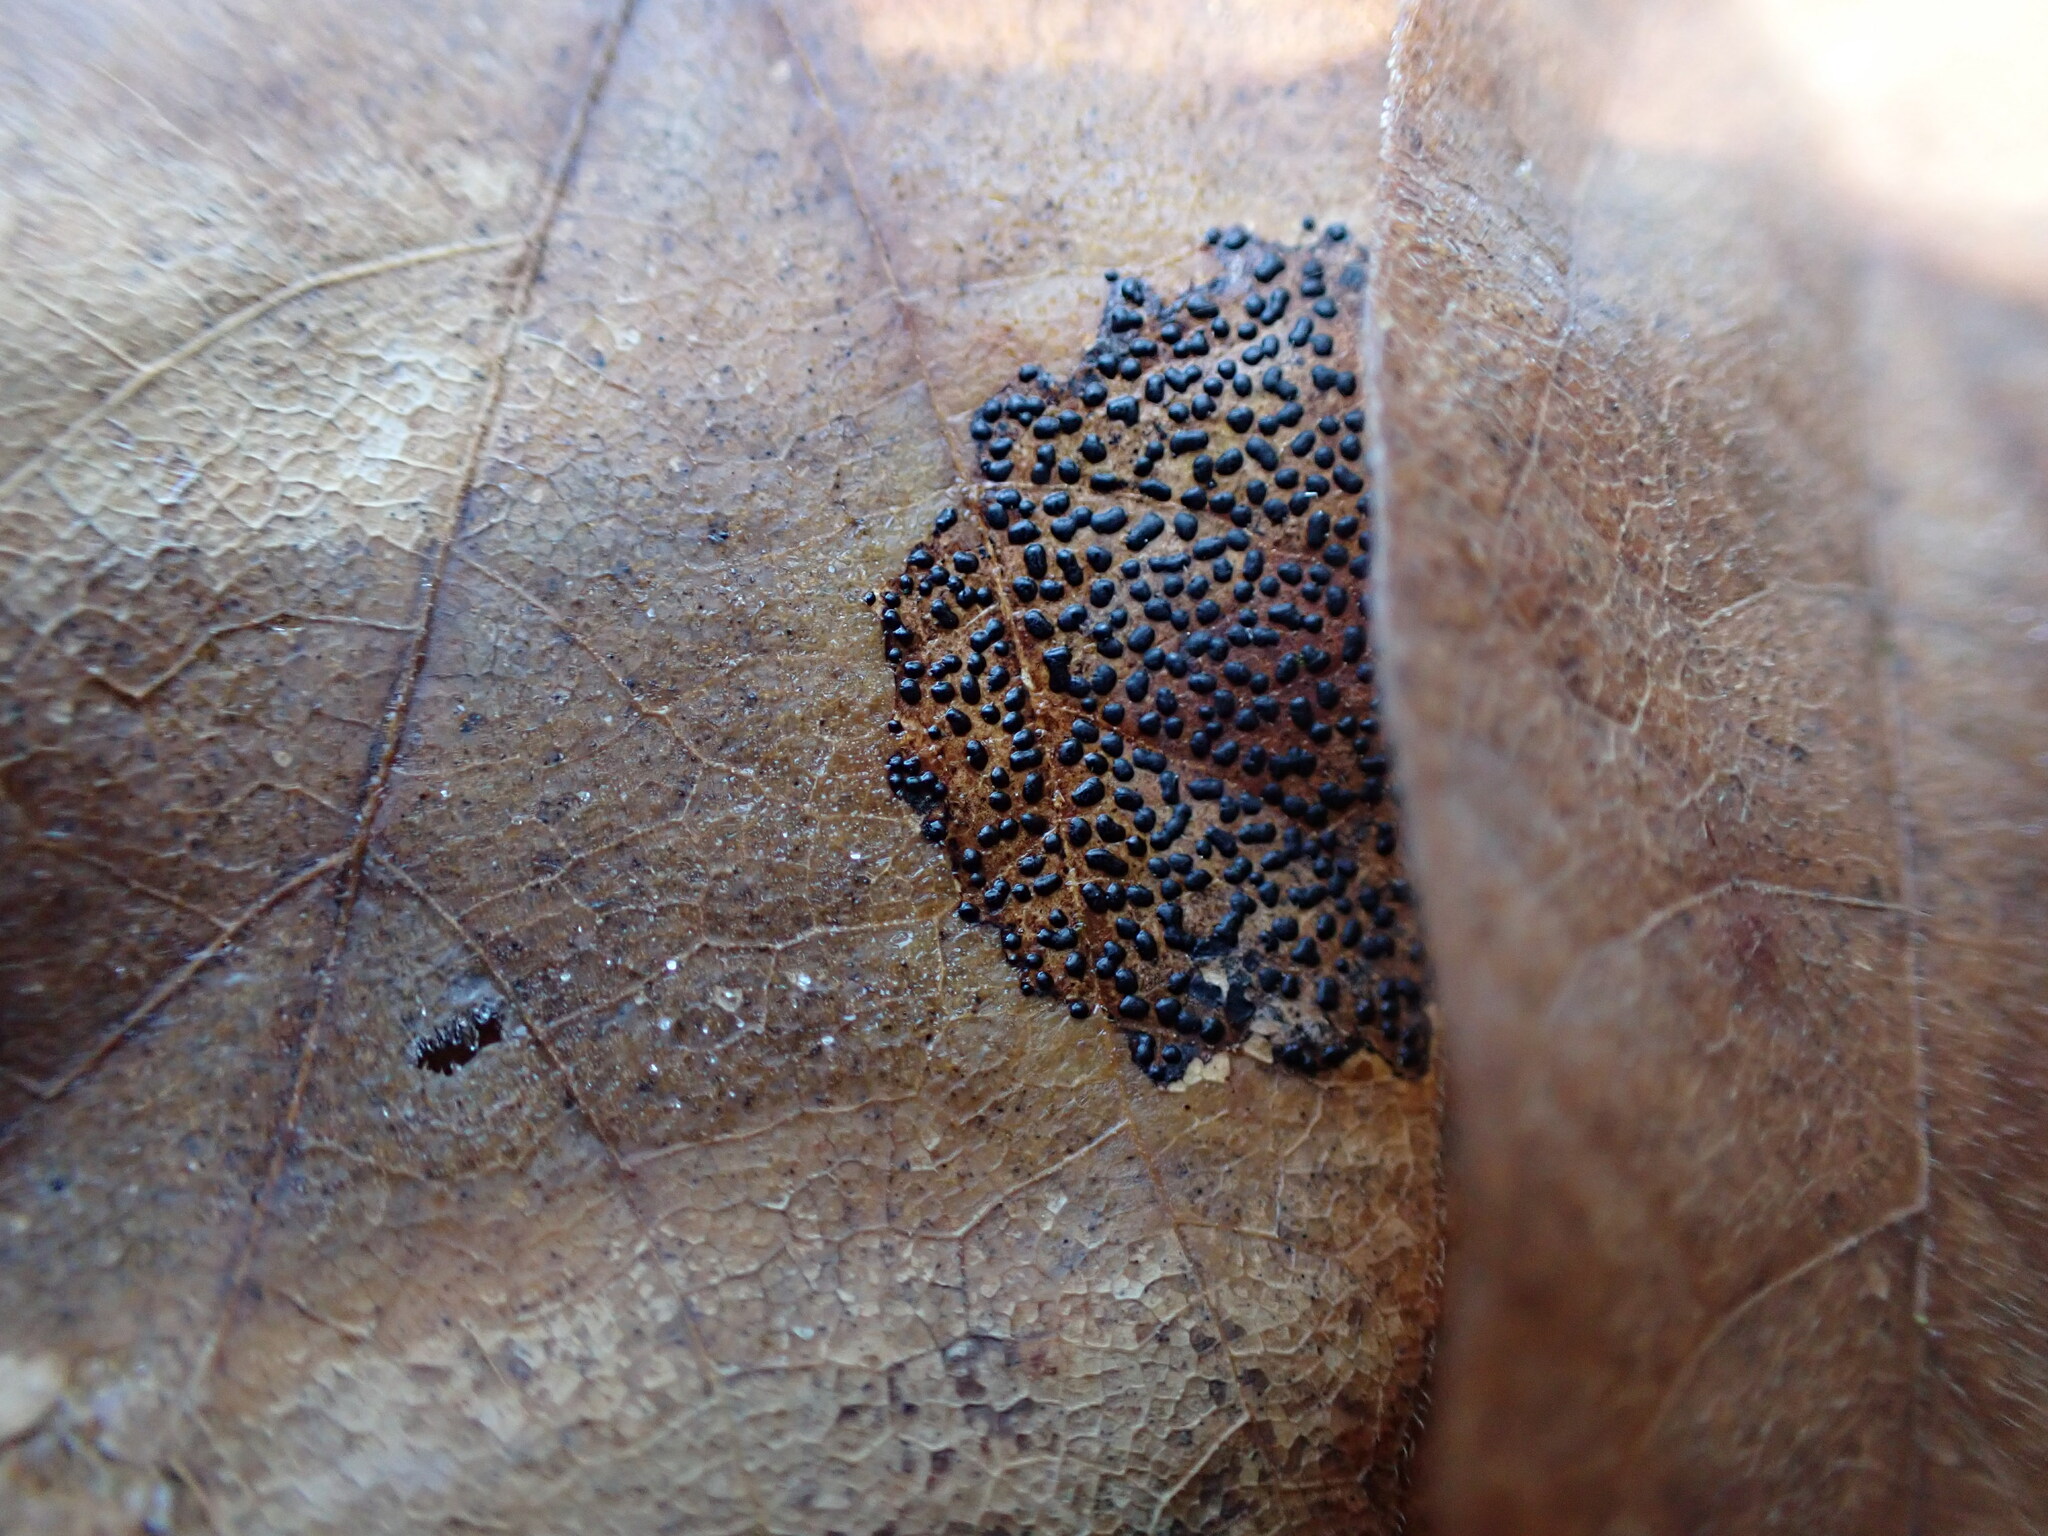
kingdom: Fungi
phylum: Ascomycota
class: Leotiomycetes
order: Rhytismatales
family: Rhytismataceae
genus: Rhytisma
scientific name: Rhytisma punctatum
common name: Speckled tar spot
